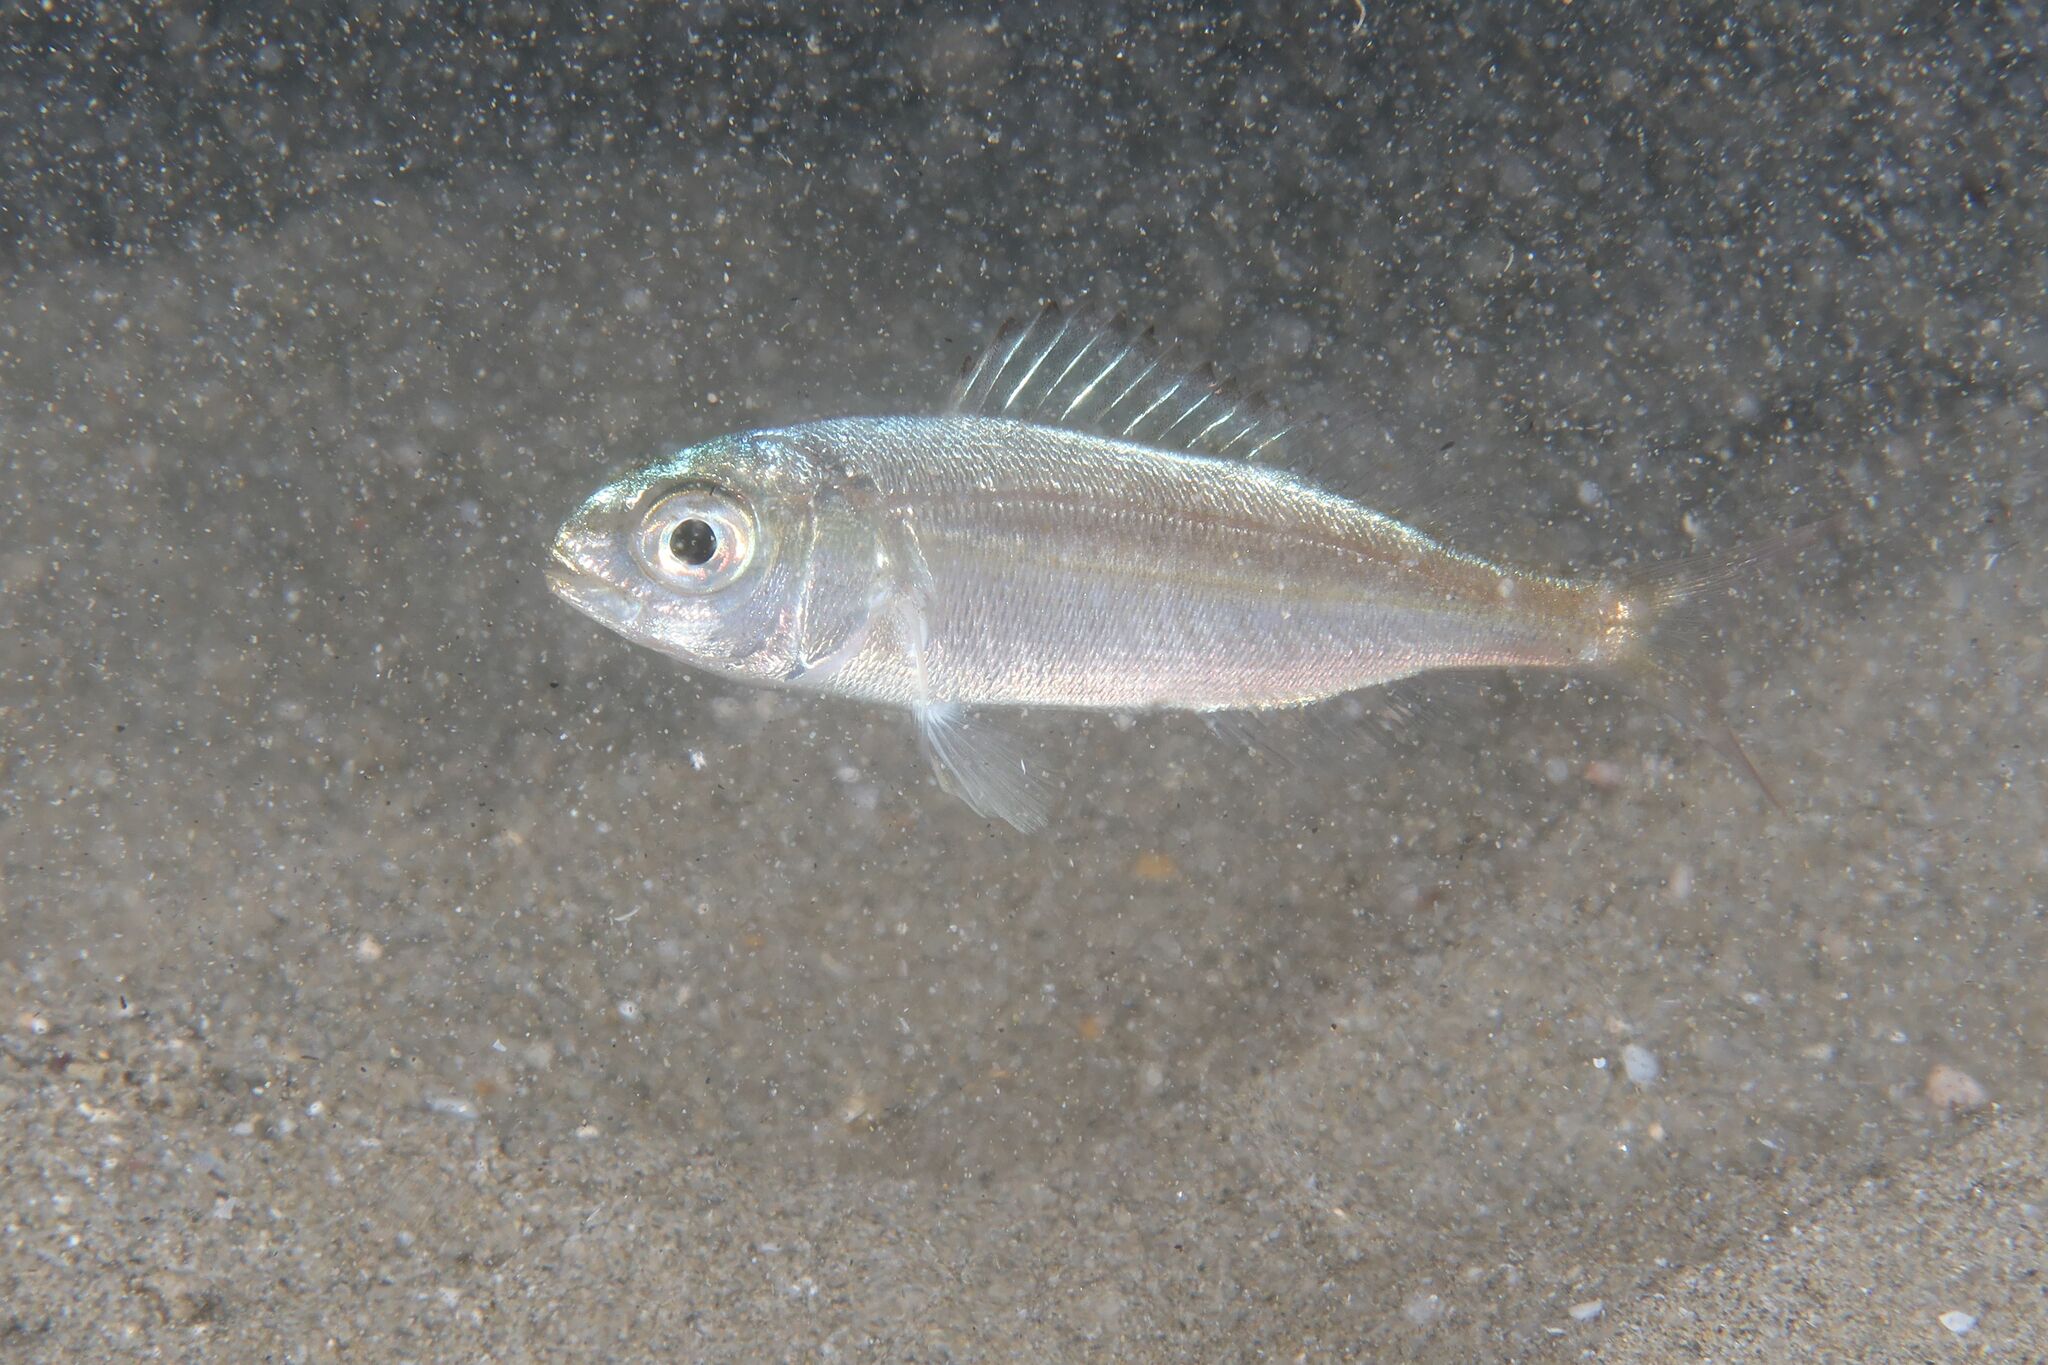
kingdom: Animalia
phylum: Chordata
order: Perciformes
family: Sparidae
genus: Pagellus
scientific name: Pagellus acarne
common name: Axillary sea-bream
